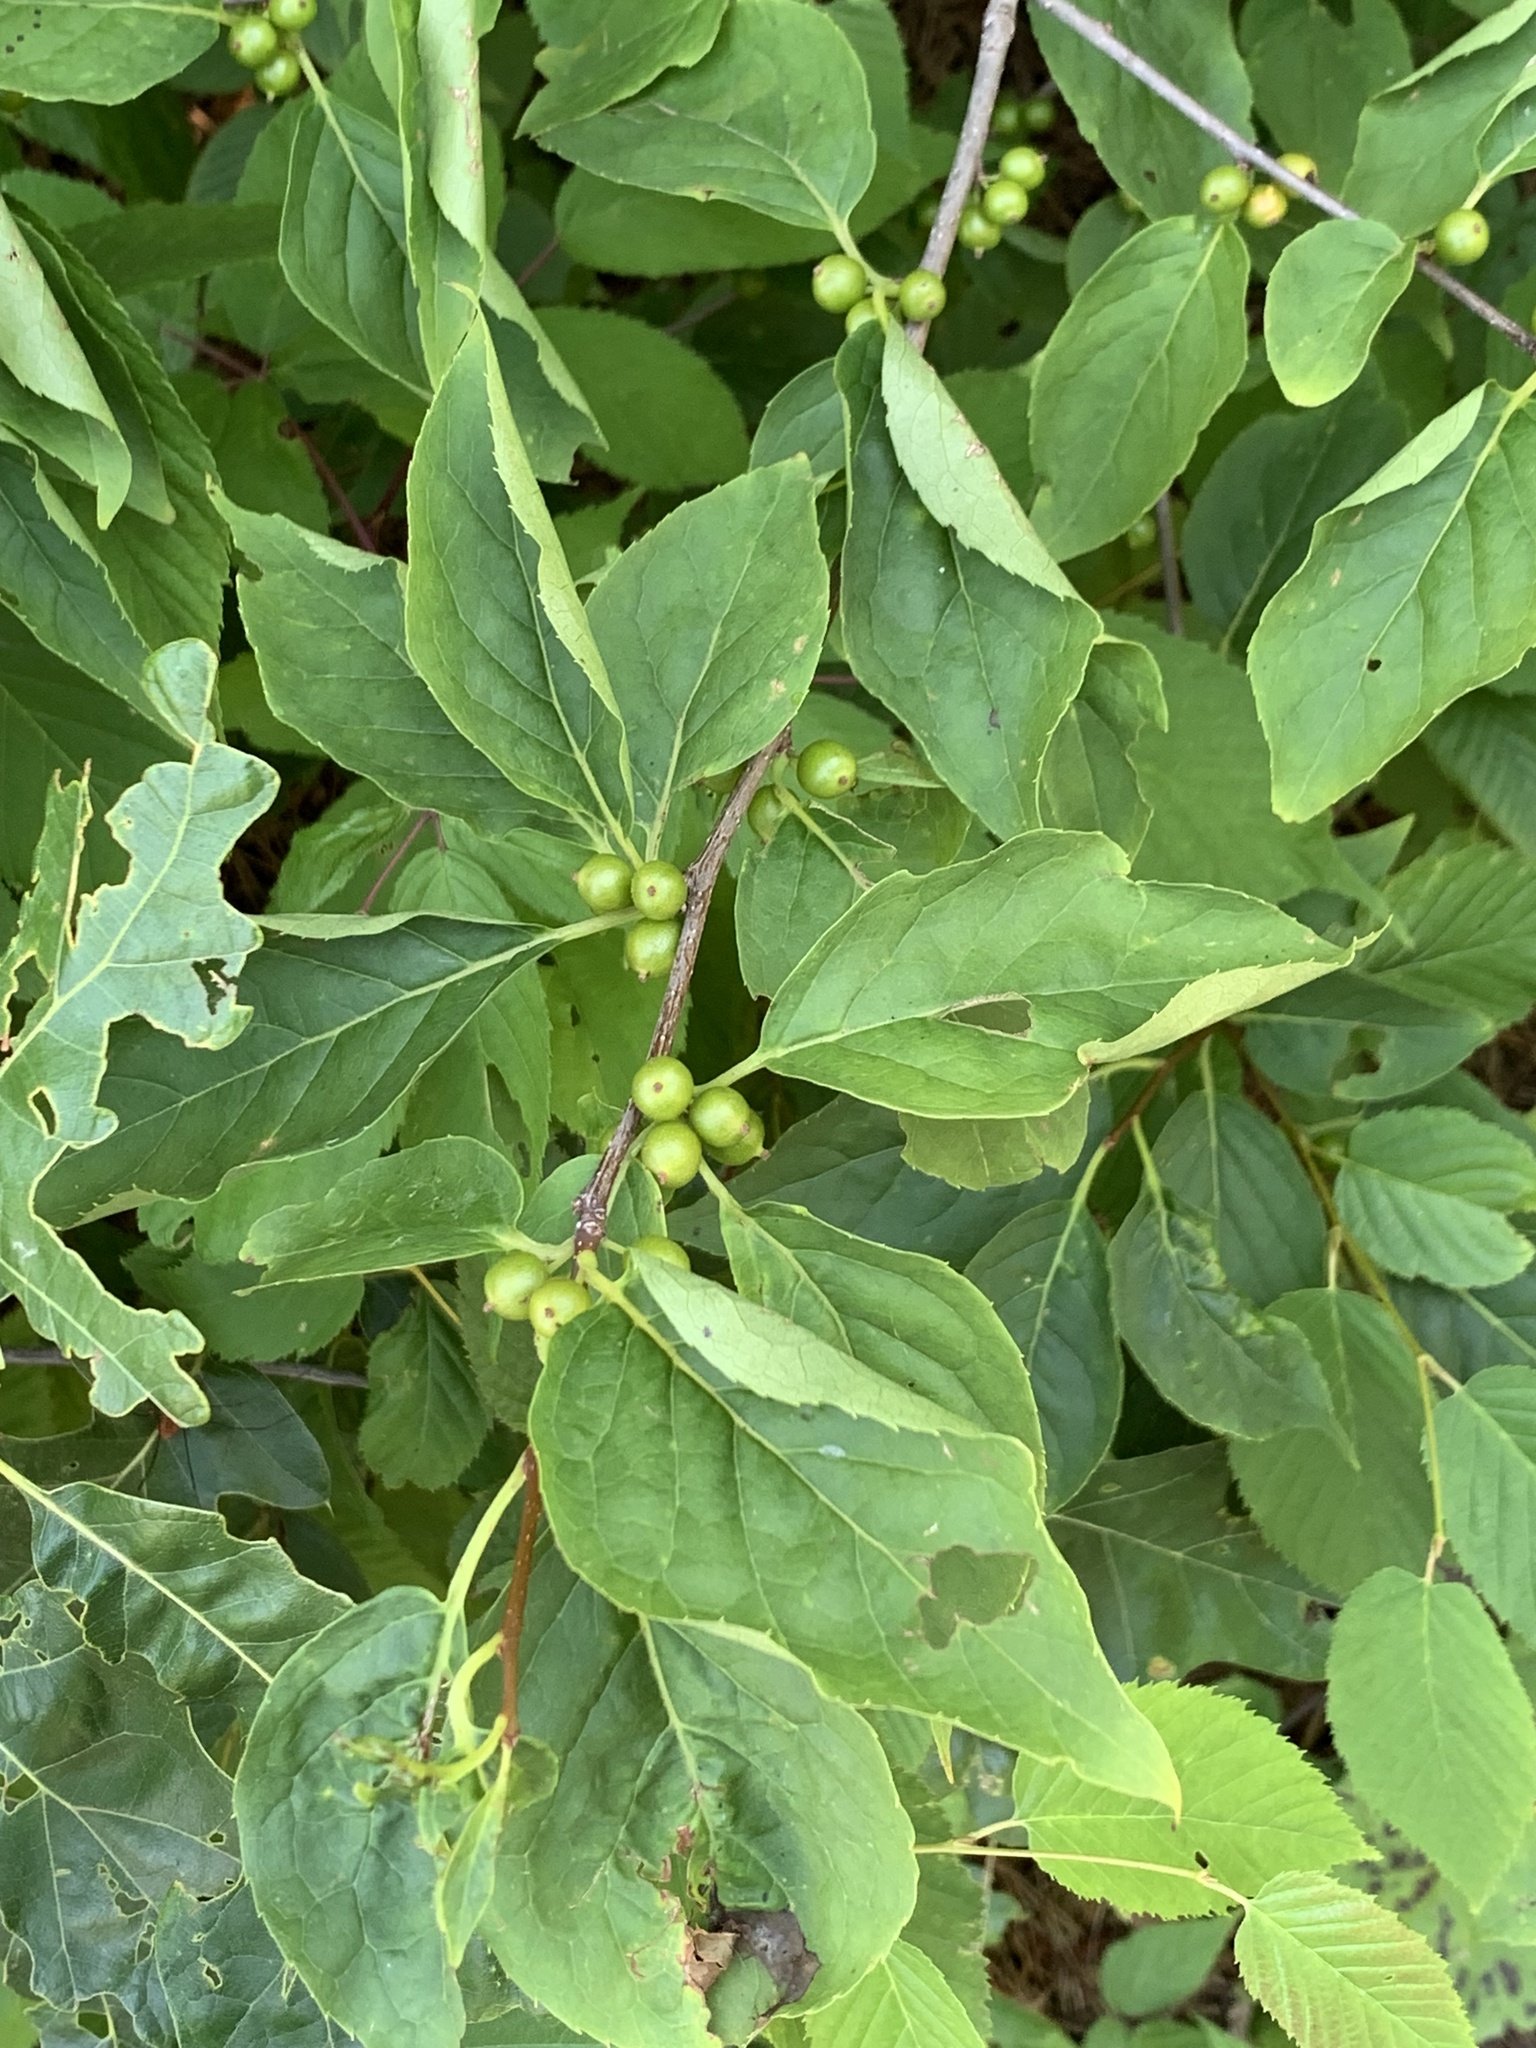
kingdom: Plantae
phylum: Tracheophyta
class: Magnoliopsida
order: Aquifoliales
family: Aquifoliaceae
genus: Ilex
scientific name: Ilex montana
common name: Mountain winterberry
